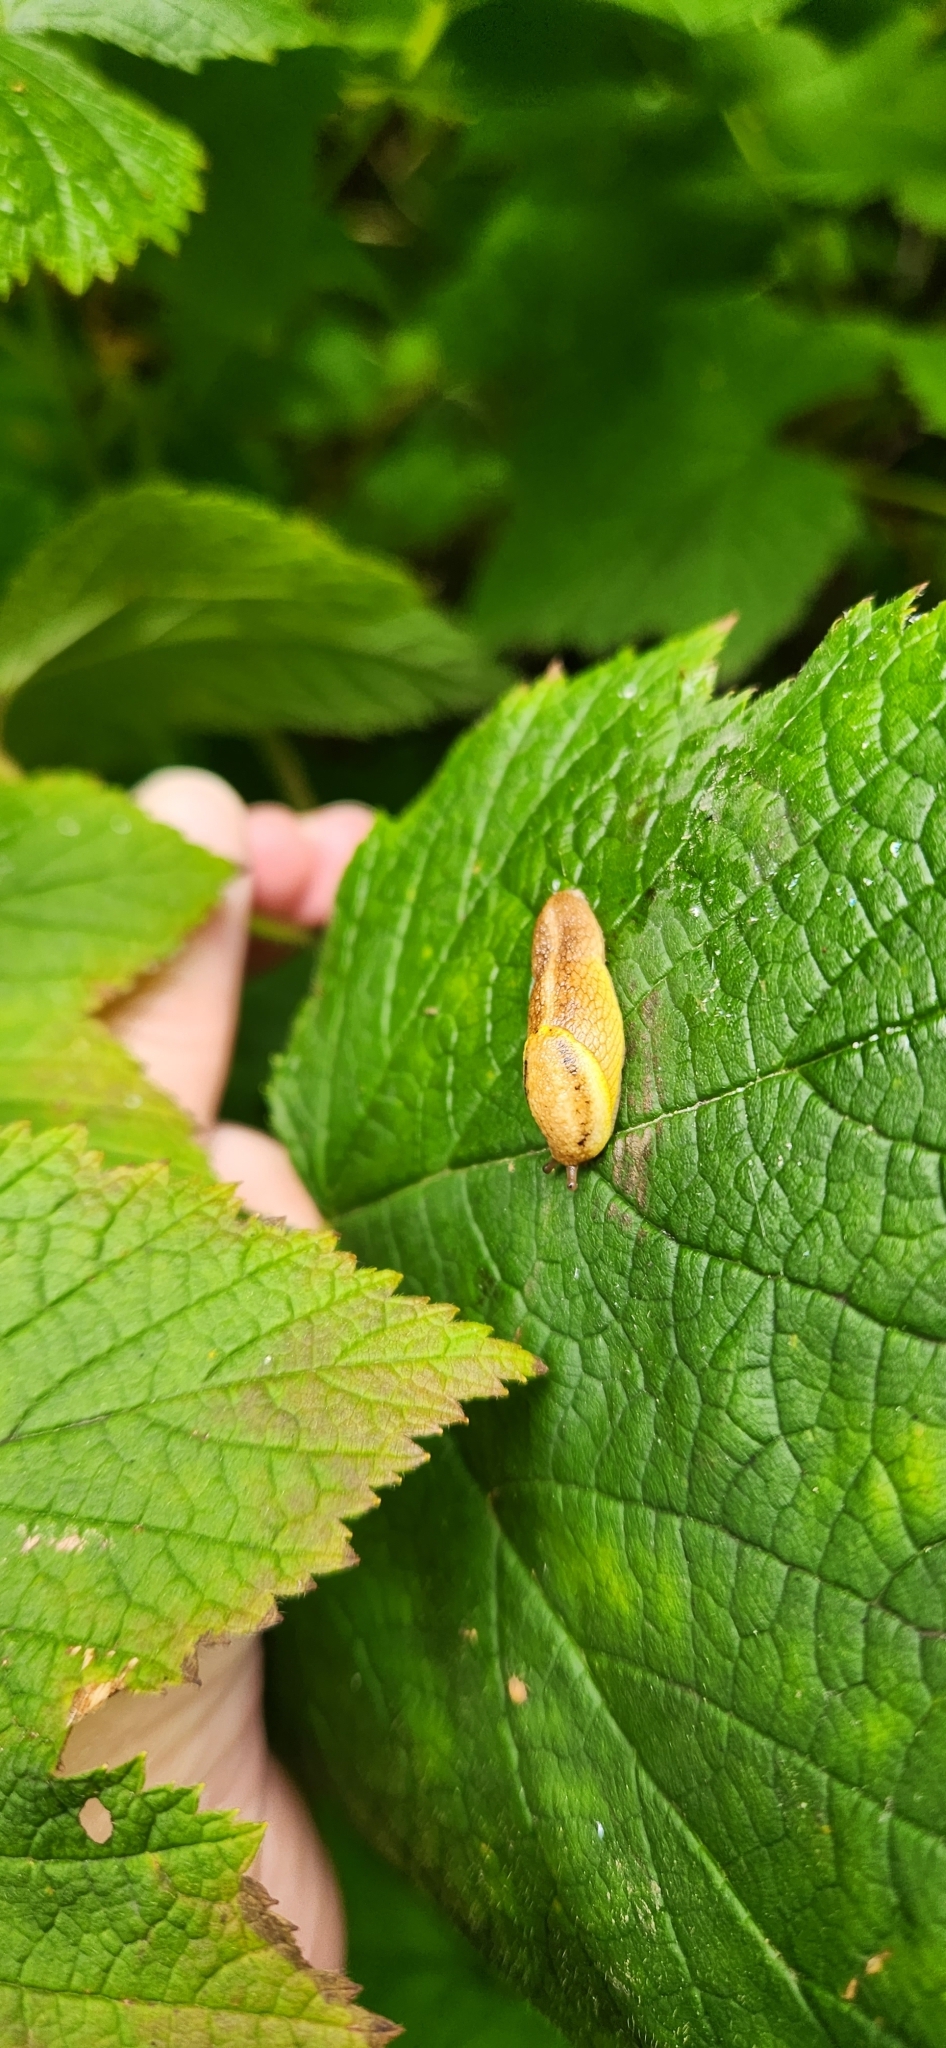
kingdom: Animalia
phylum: Mollusca
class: Gastropoda
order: Stylommatophora
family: Ariolimacidae
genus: Prophysaon
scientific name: Prophysaon foliolatum
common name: Yellow-bordered taildropper
